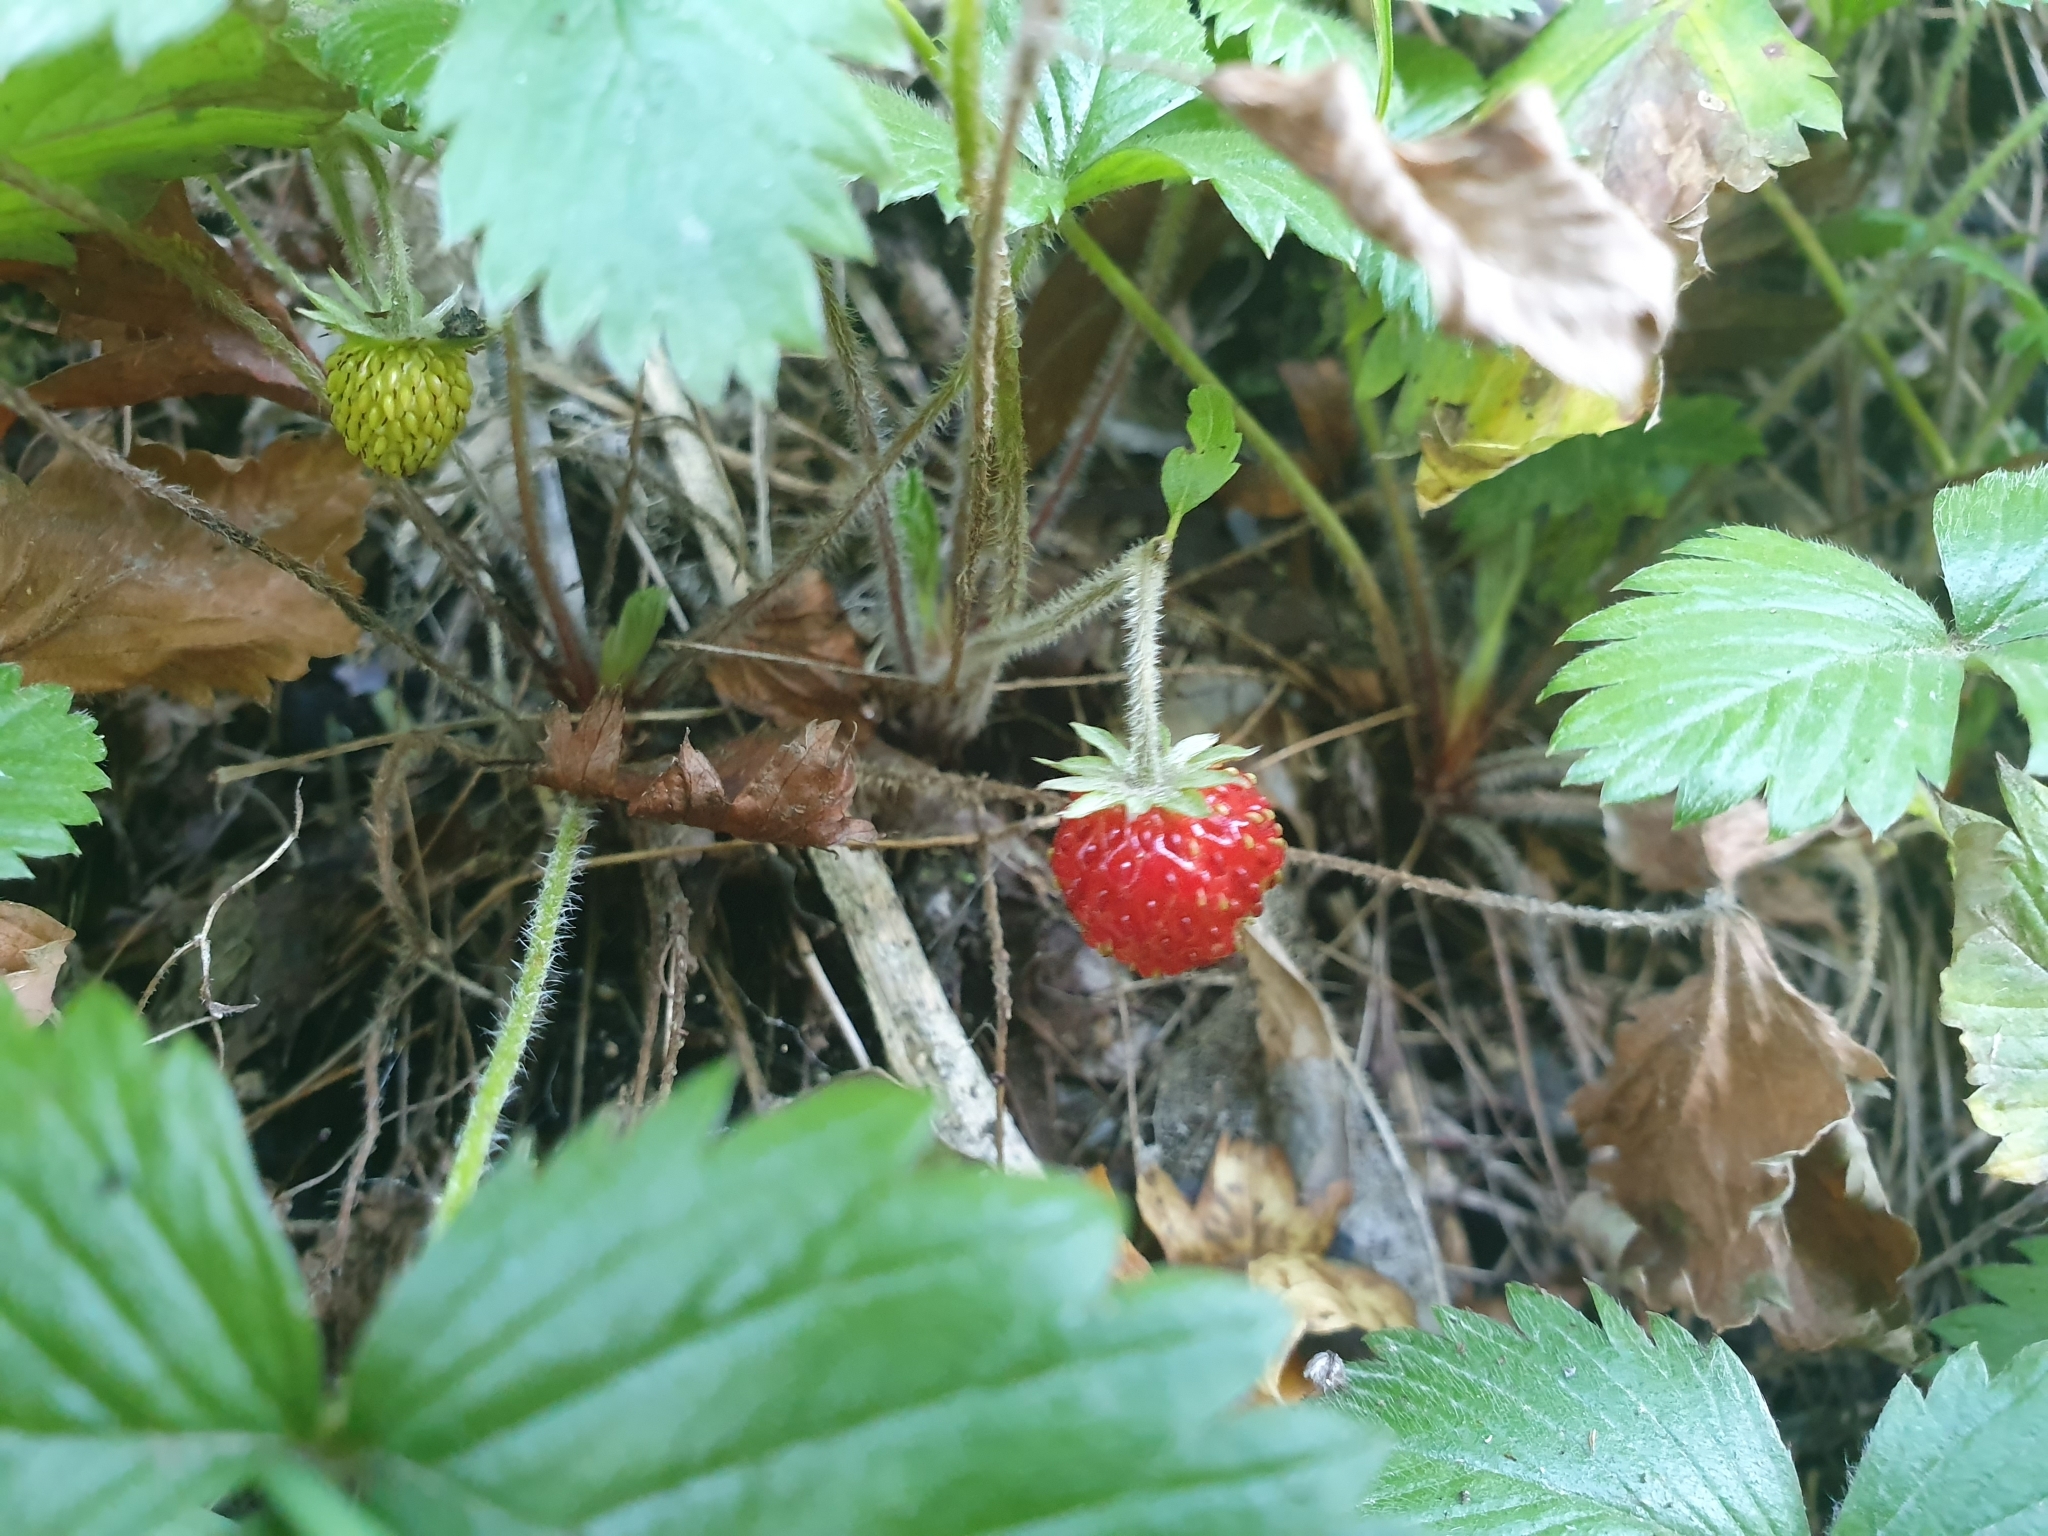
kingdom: Plantae
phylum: Tracheophyta
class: Magnoliopsida
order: Rosales
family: Rosaceae
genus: Fragaria
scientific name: Fragaria ananassa
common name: Garden strawberry
